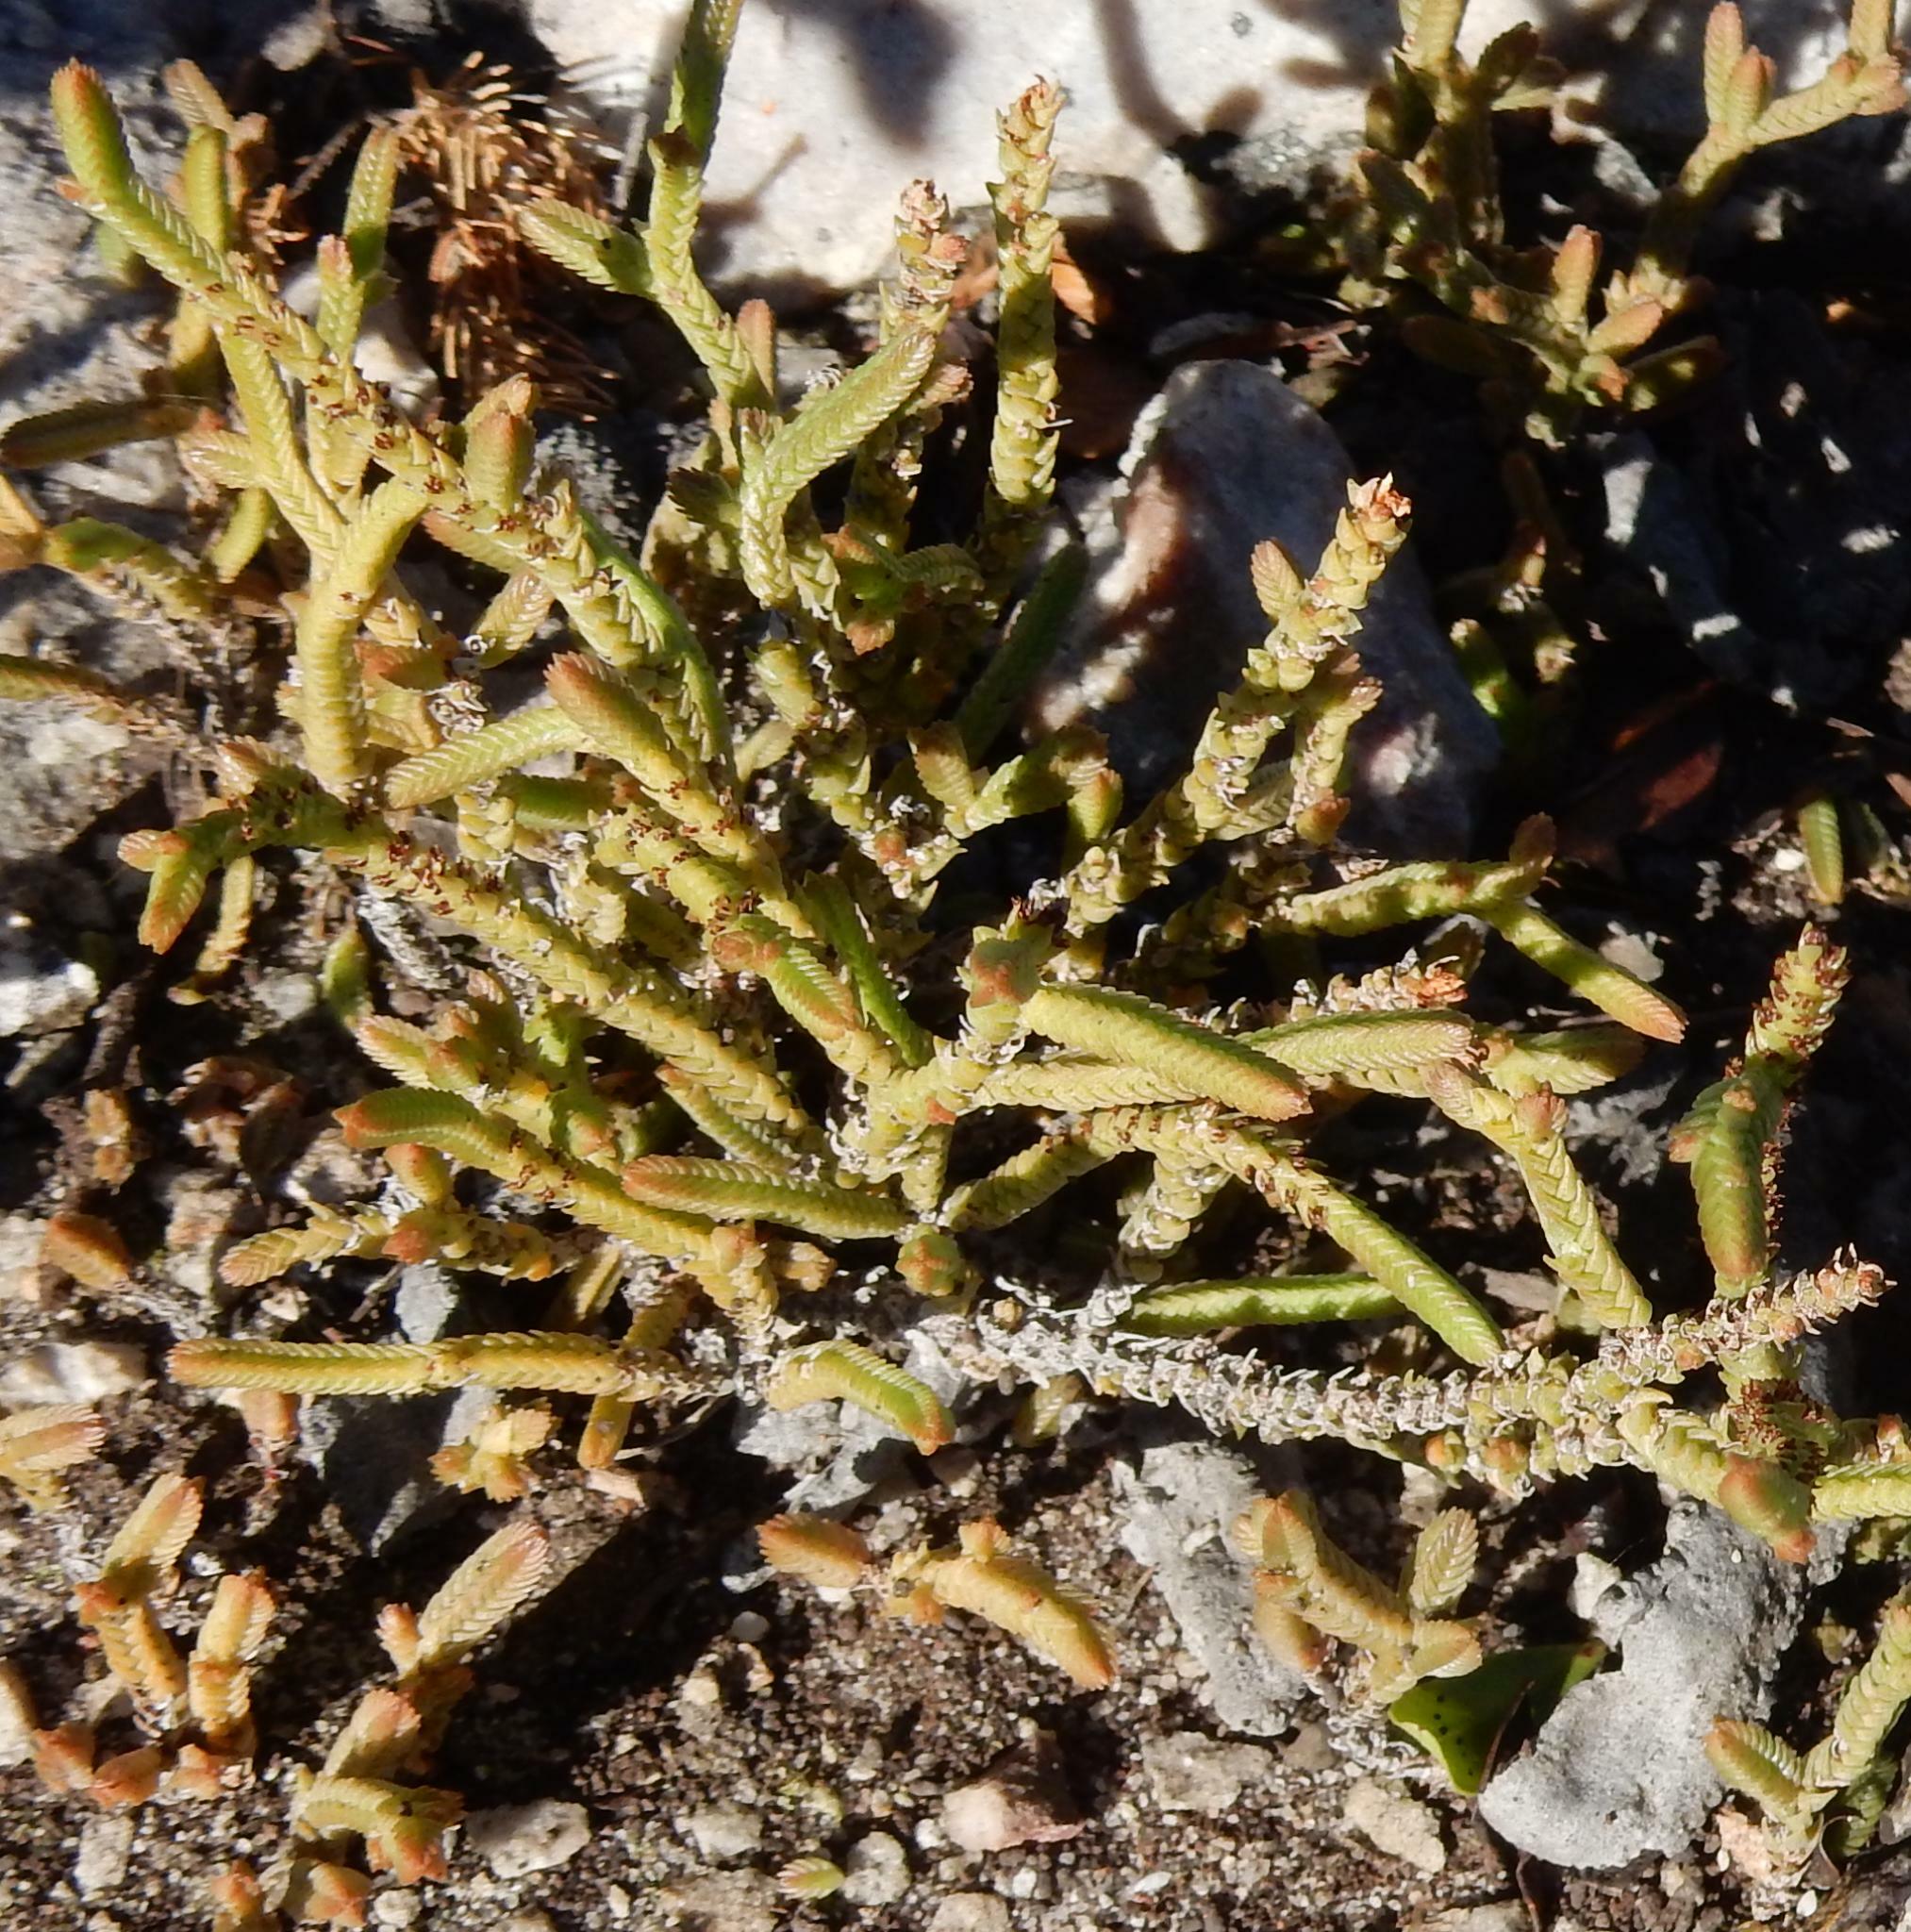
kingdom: Plantae
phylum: Tracheophyta
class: Magnoliopsida
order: Saxifragales
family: Crassulaceae
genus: Crassula
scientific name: Crassula muscosa
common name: Toy-cypress
